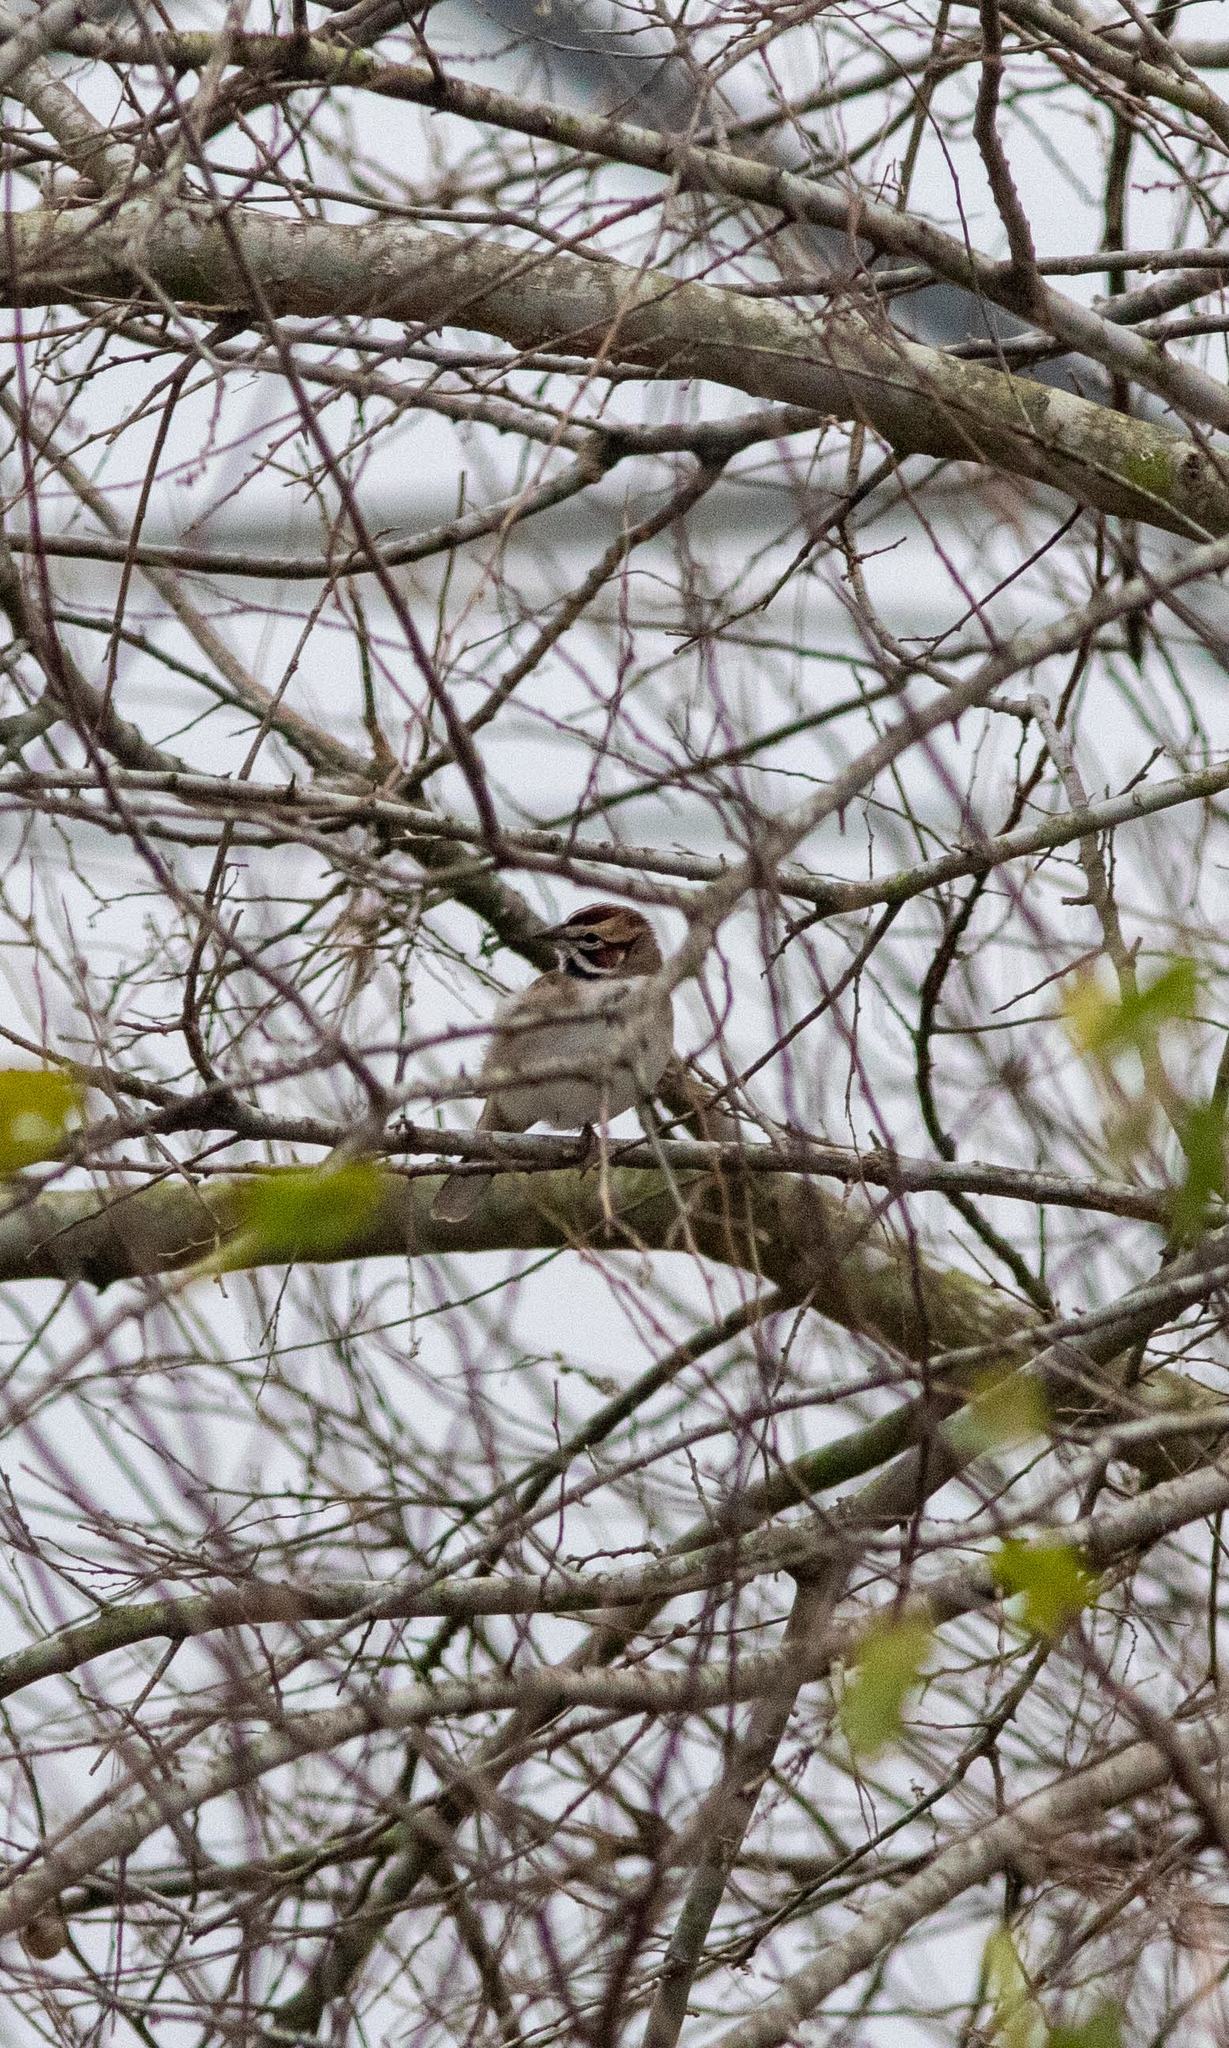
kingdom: Animalia
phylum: Chordata
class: Aves
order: Passeriformes
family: Passerellidae
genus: Chondestes
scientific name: Chondestes grammacus
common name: Lark sparrow
